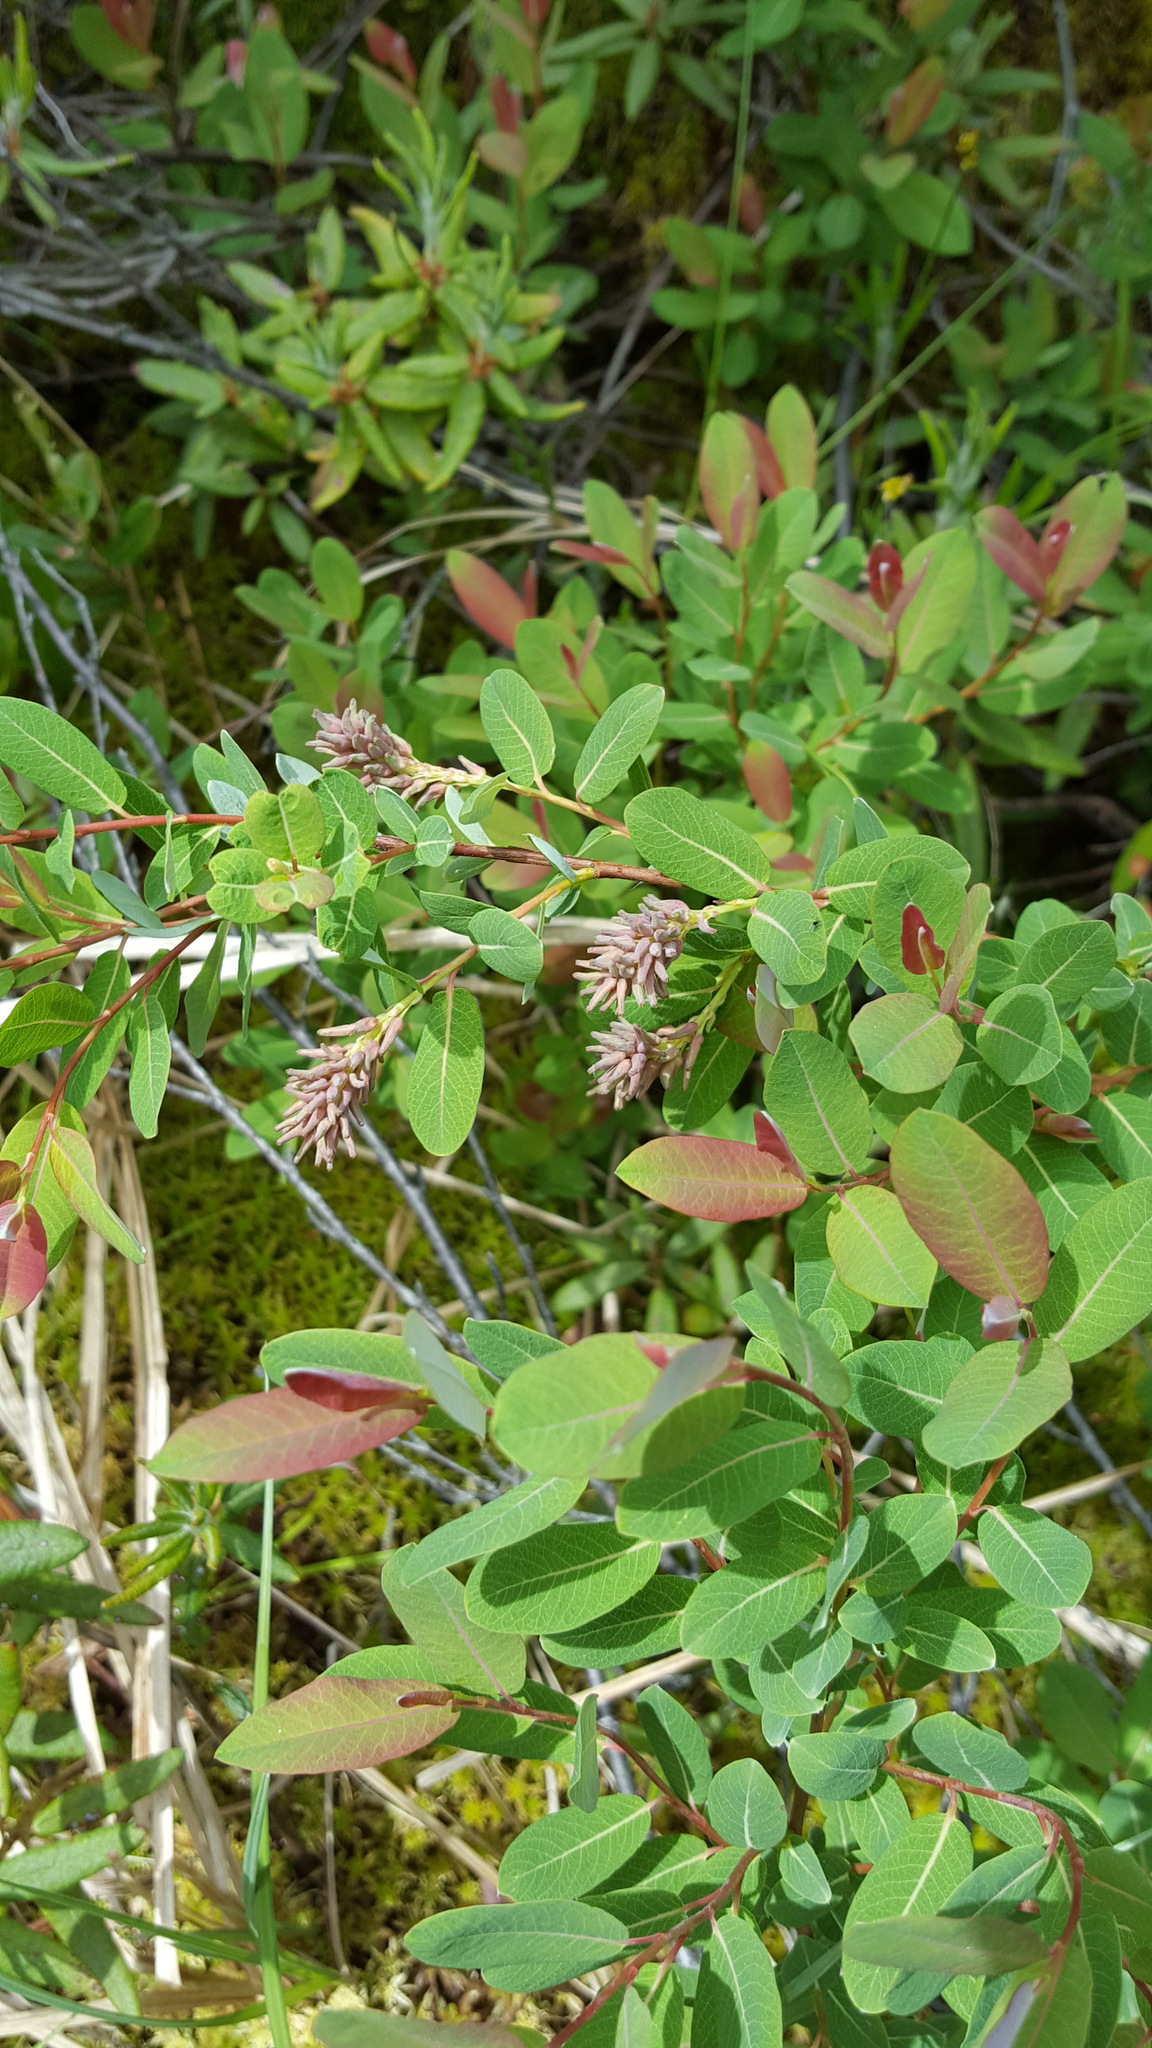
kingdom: Plantae
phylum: Tracheophyta
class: Magnoliopsida
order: Malpighiales
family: Salicaceae
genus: Salix
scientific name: Salix pedicellaris
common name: Bog willow
